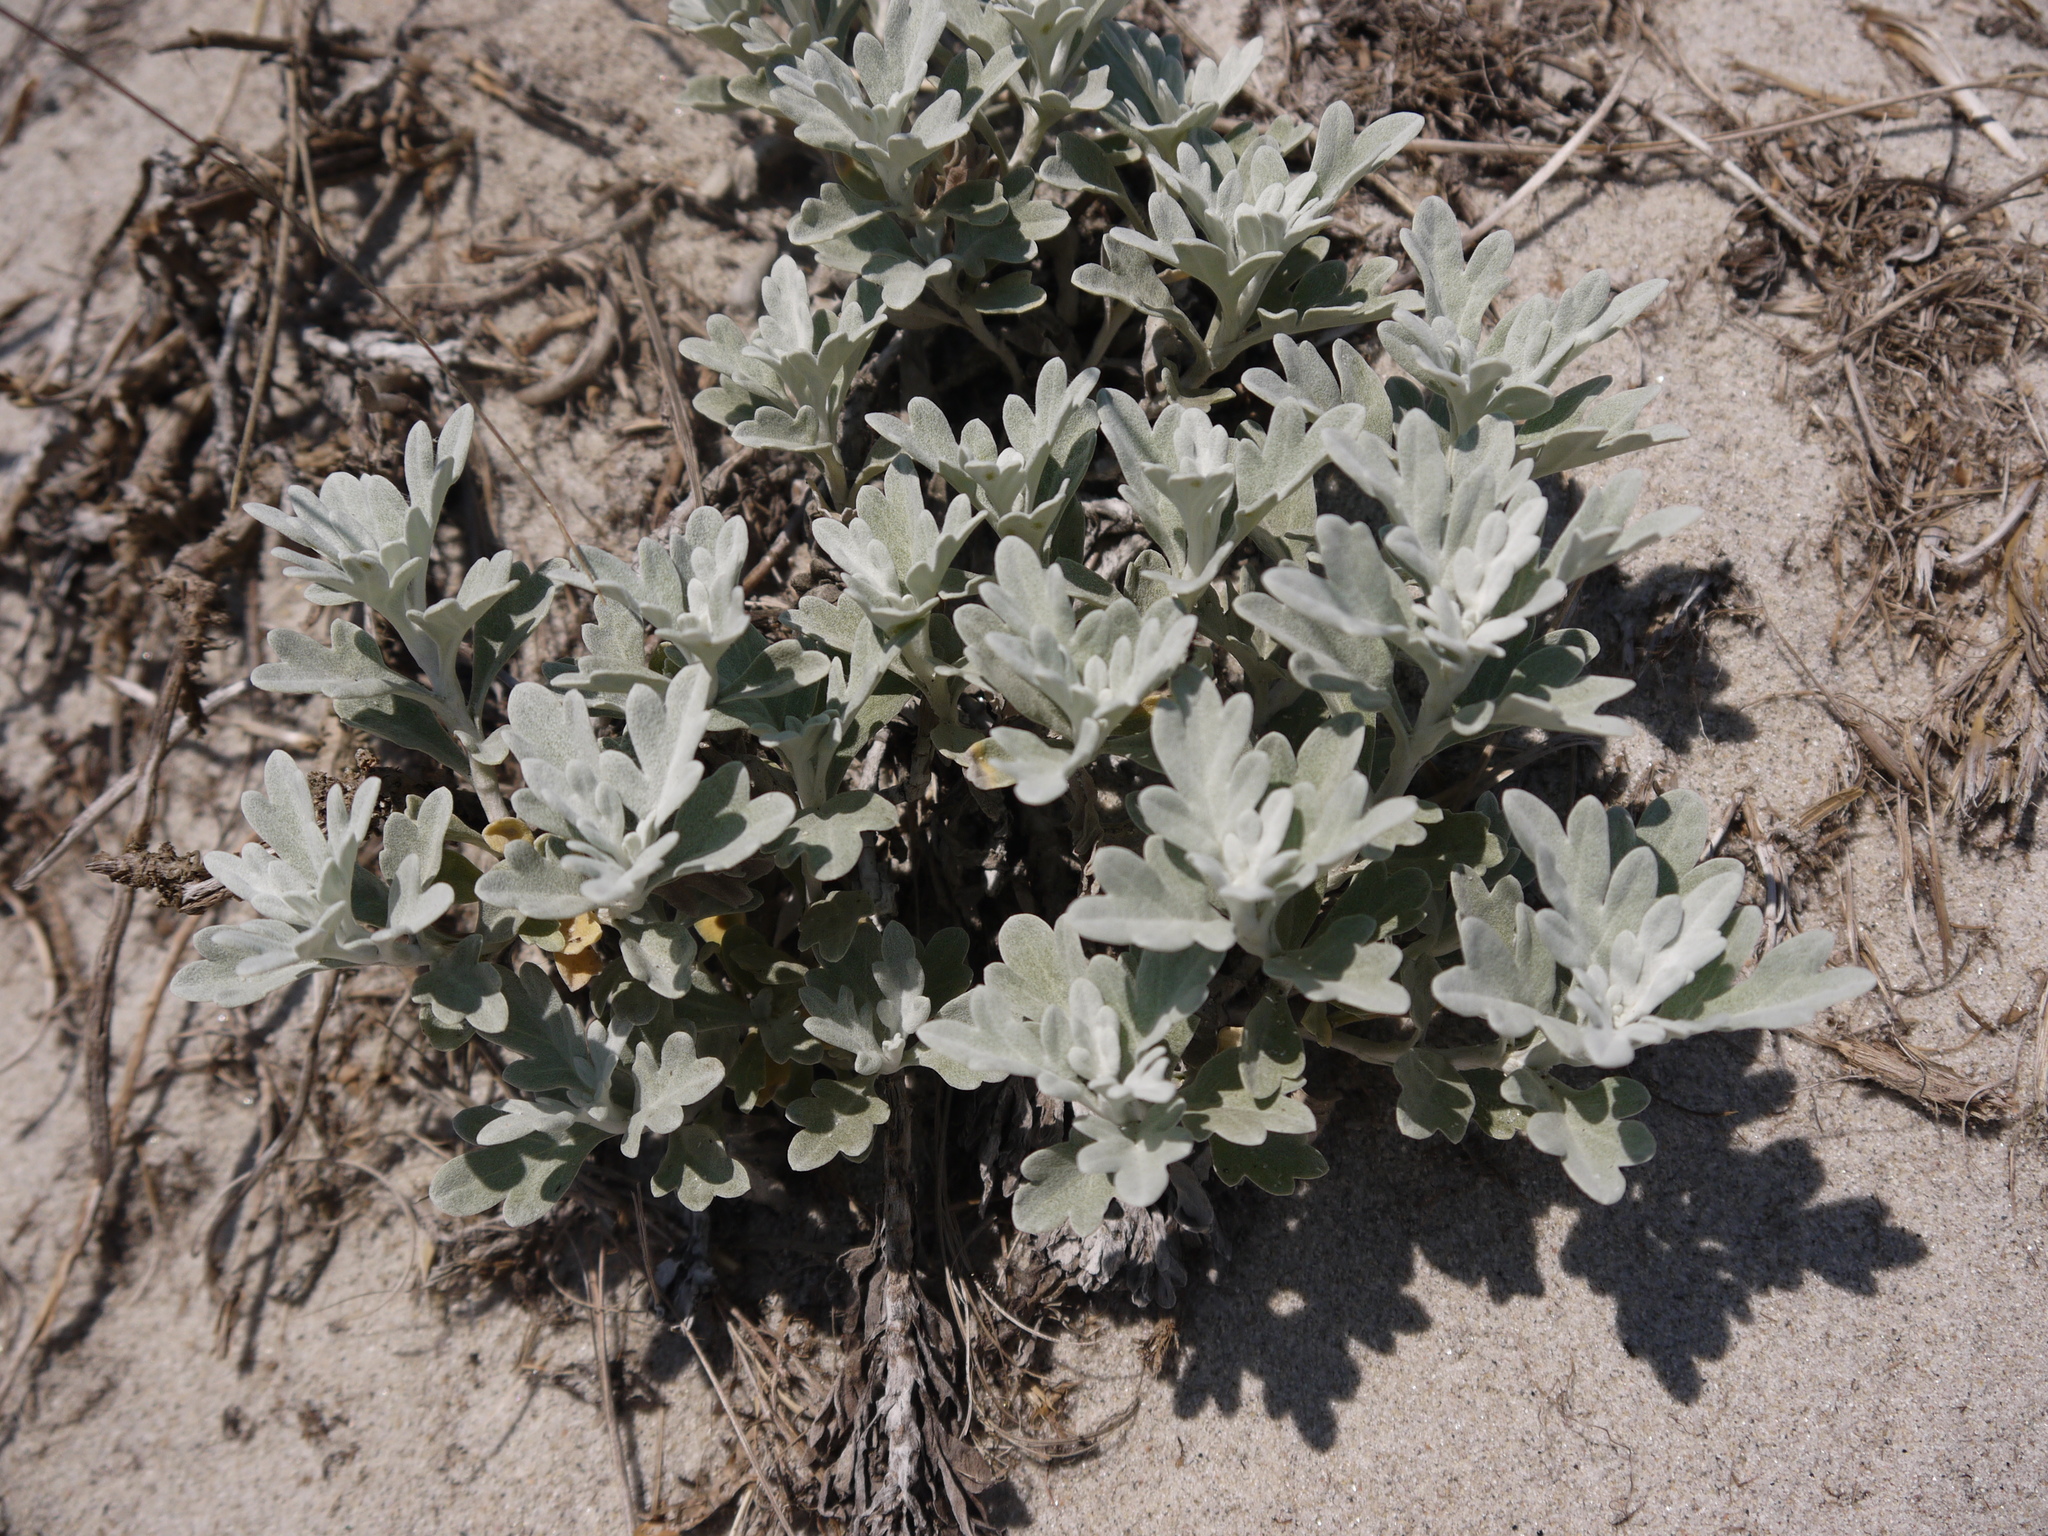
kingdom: Plantae
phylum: Tracheophyta
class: Magnoliopsida
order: Asterales
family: Asteraceae
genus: Artemisia
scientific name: Artemisia stelleriana
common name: Beach wormwood
